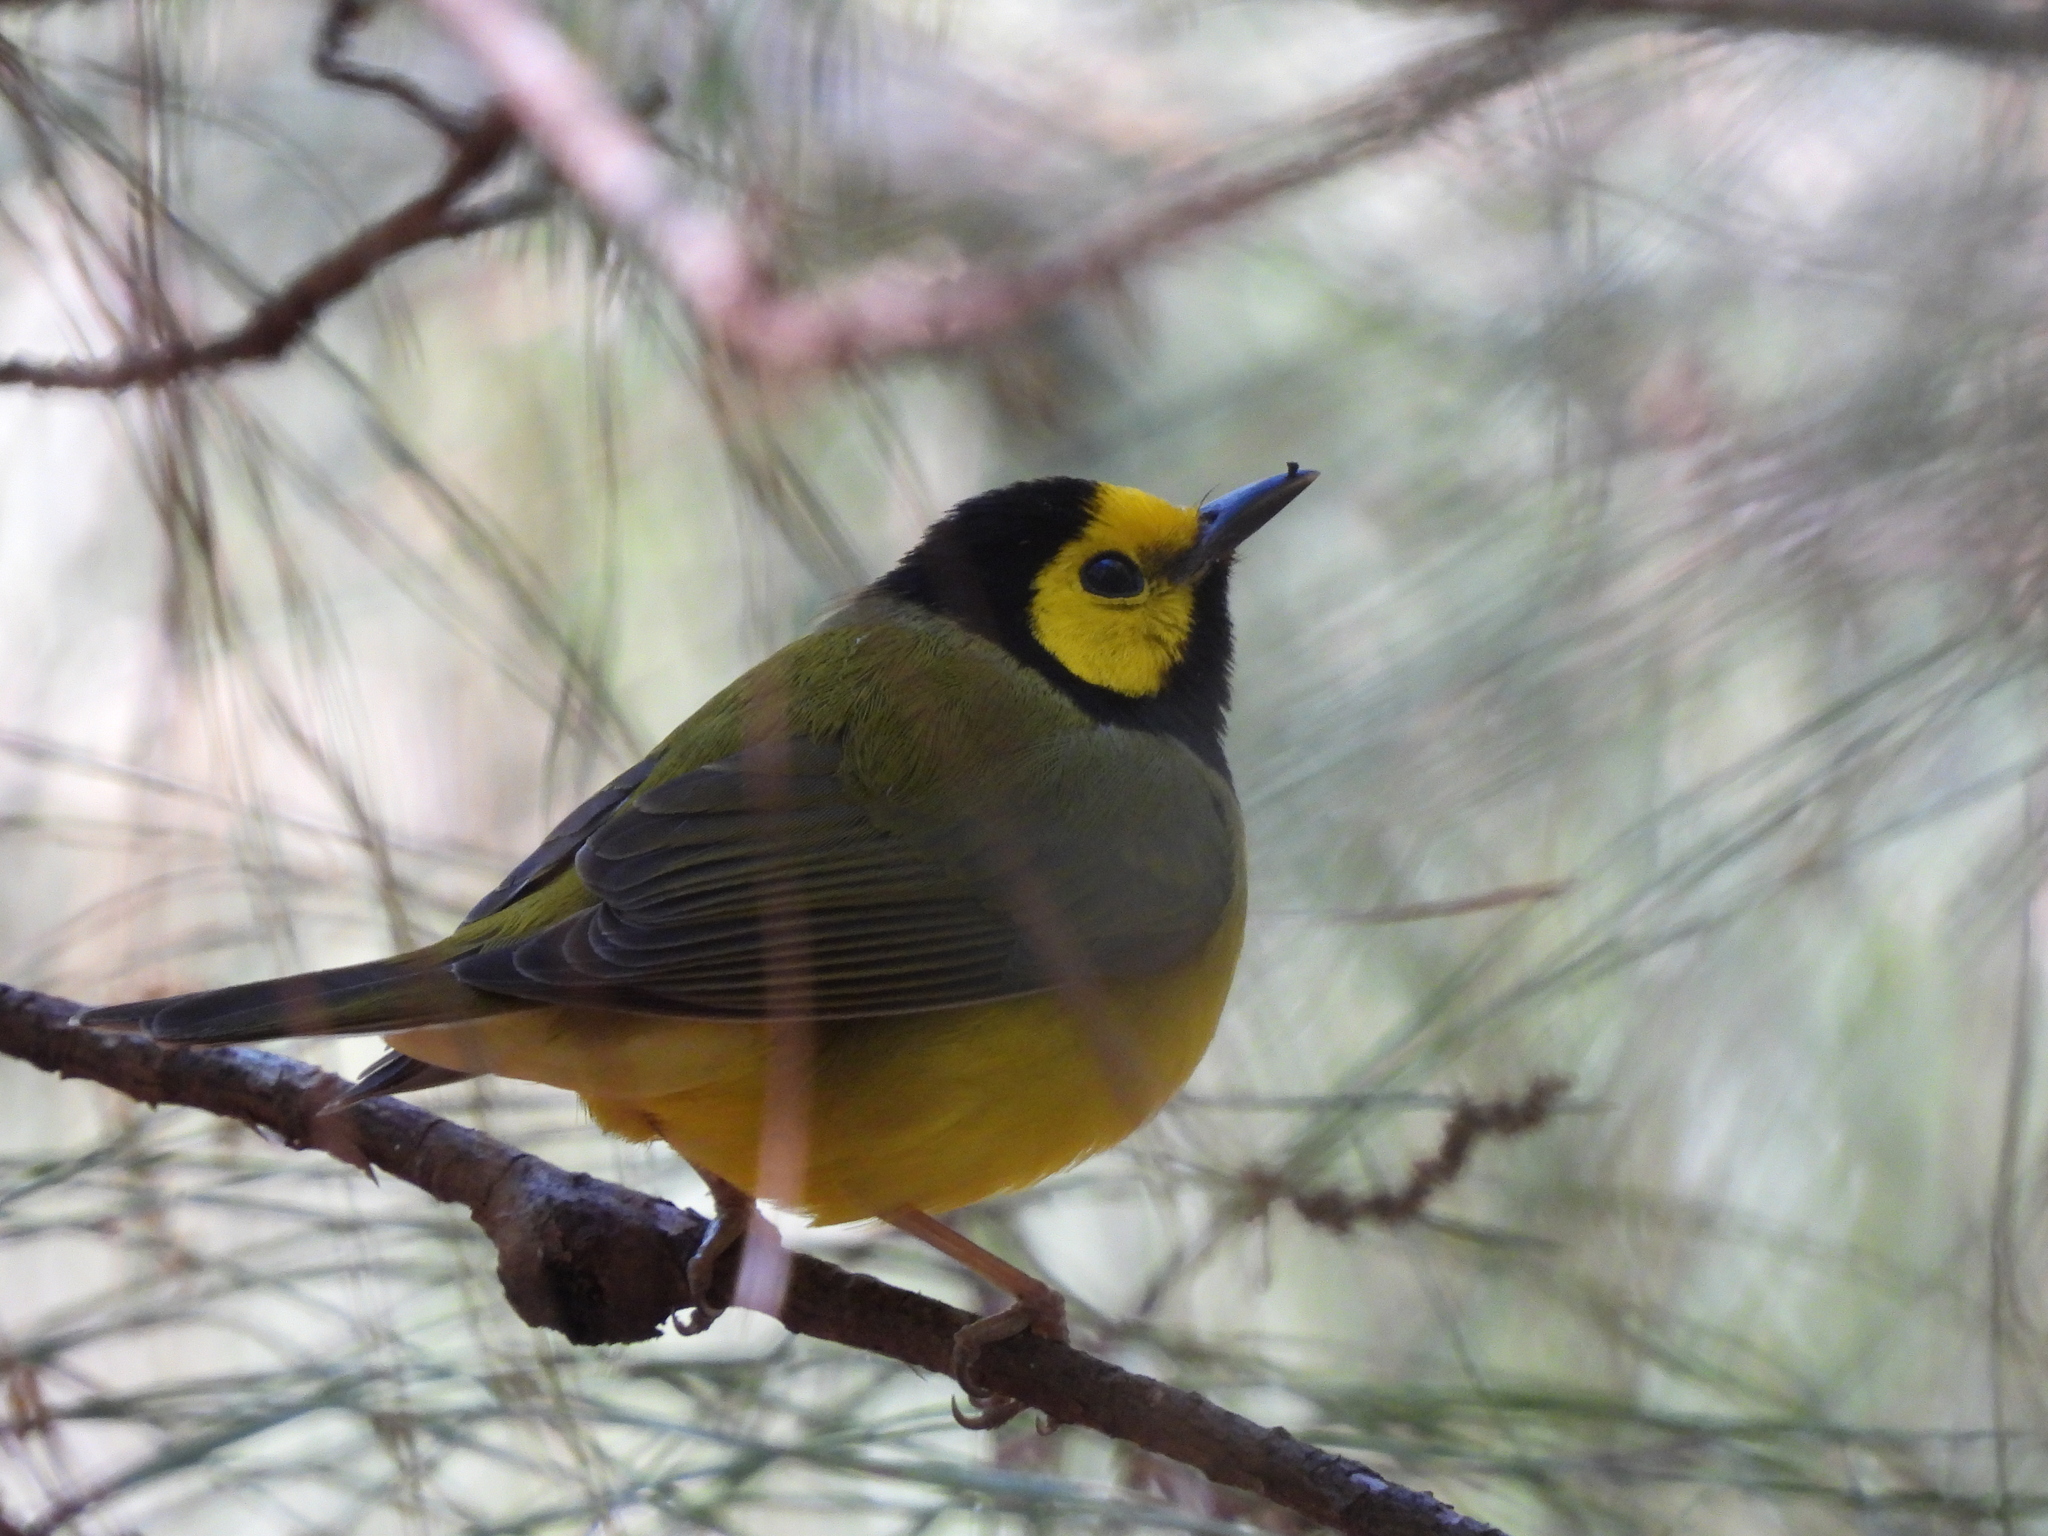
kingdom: Animalia
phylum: Chordata
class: Aves
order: Passeriformes
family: Parulidae
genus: Setophaga
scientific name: Setophaga citrina
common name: Hooded warbler
